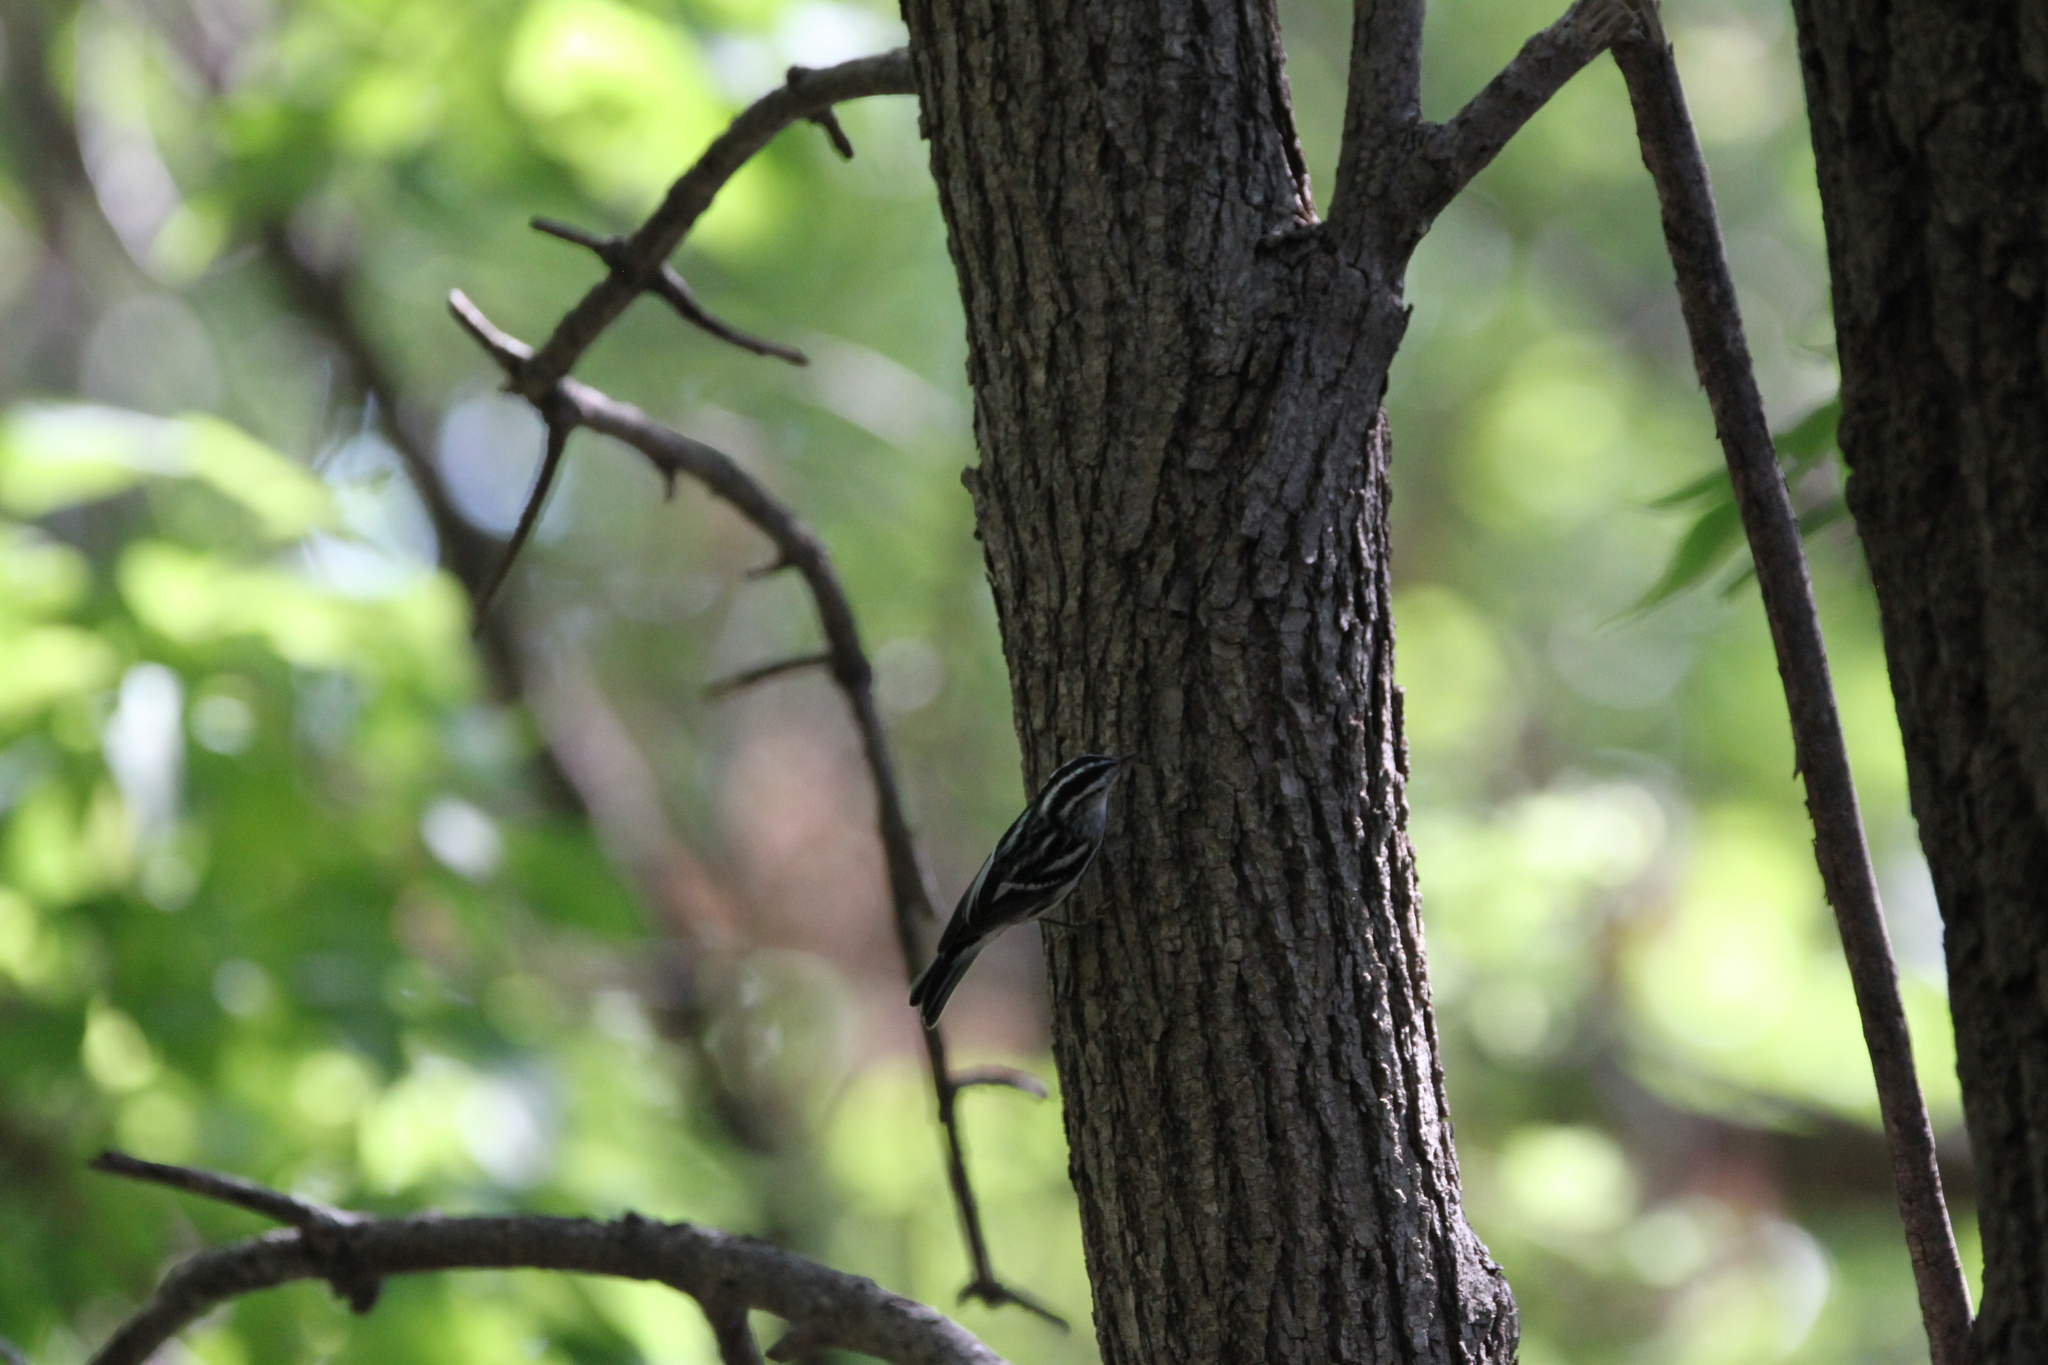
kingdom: Animalia
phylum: Chordata
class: Aves
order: Passeriformes
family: Parulidae
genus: Mniotilta
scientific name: Mniotilta varia
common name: Black-and-white warbler
